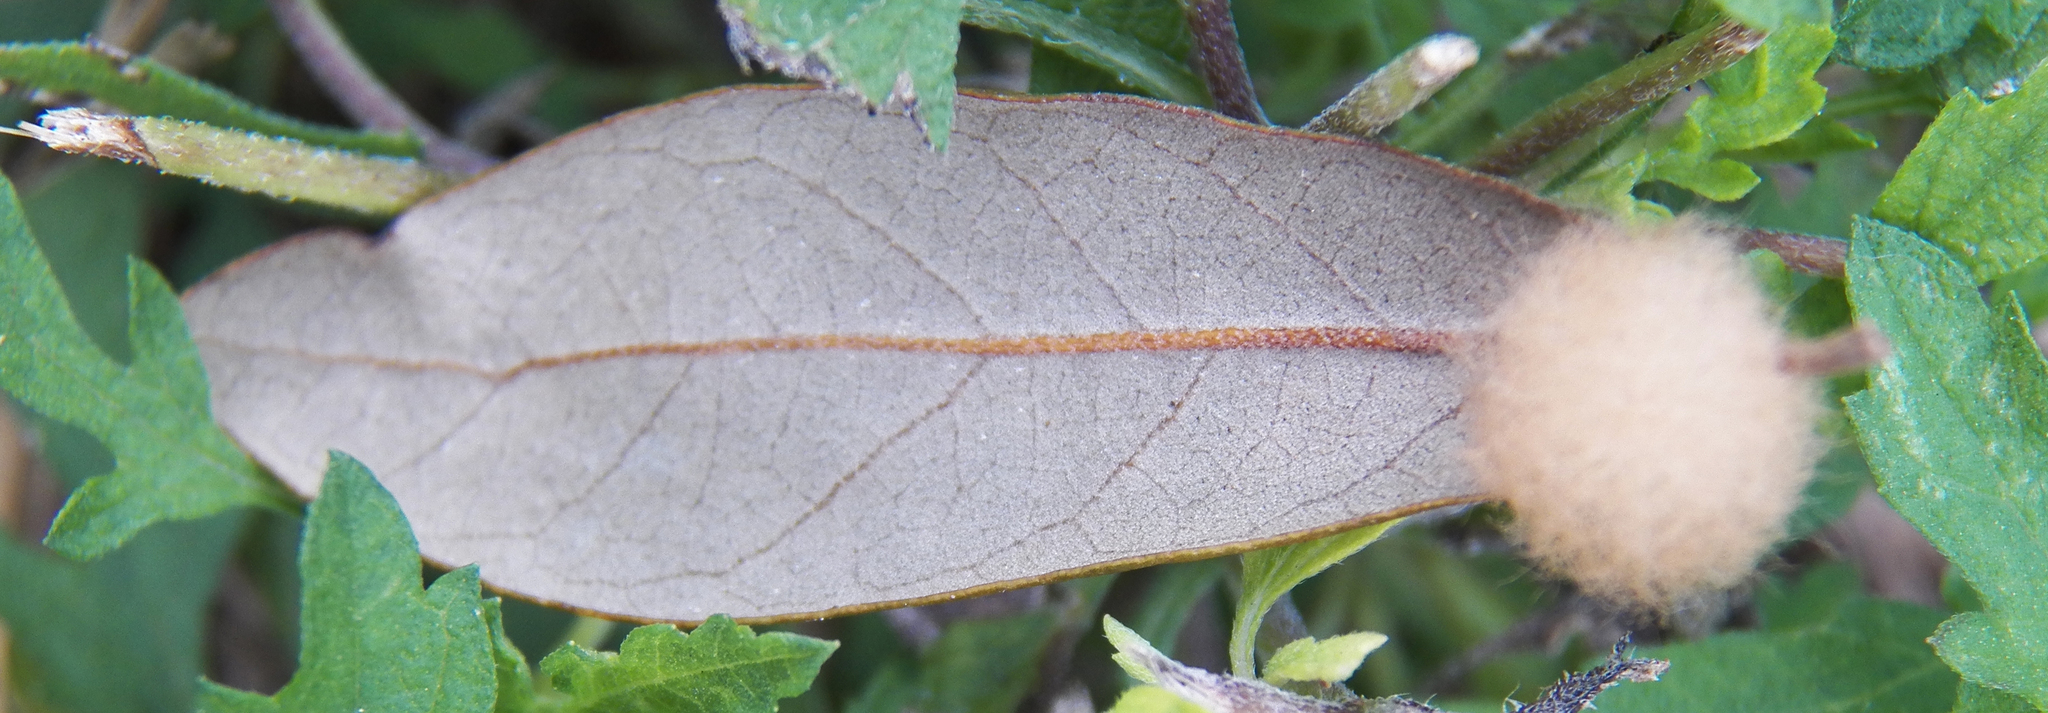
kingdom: Animalia
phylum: Arthropoda
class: Insecta
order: Hymenoptera
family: Cynipidae
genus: Andricus
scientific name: Andricus Druon quercuslanigerum
